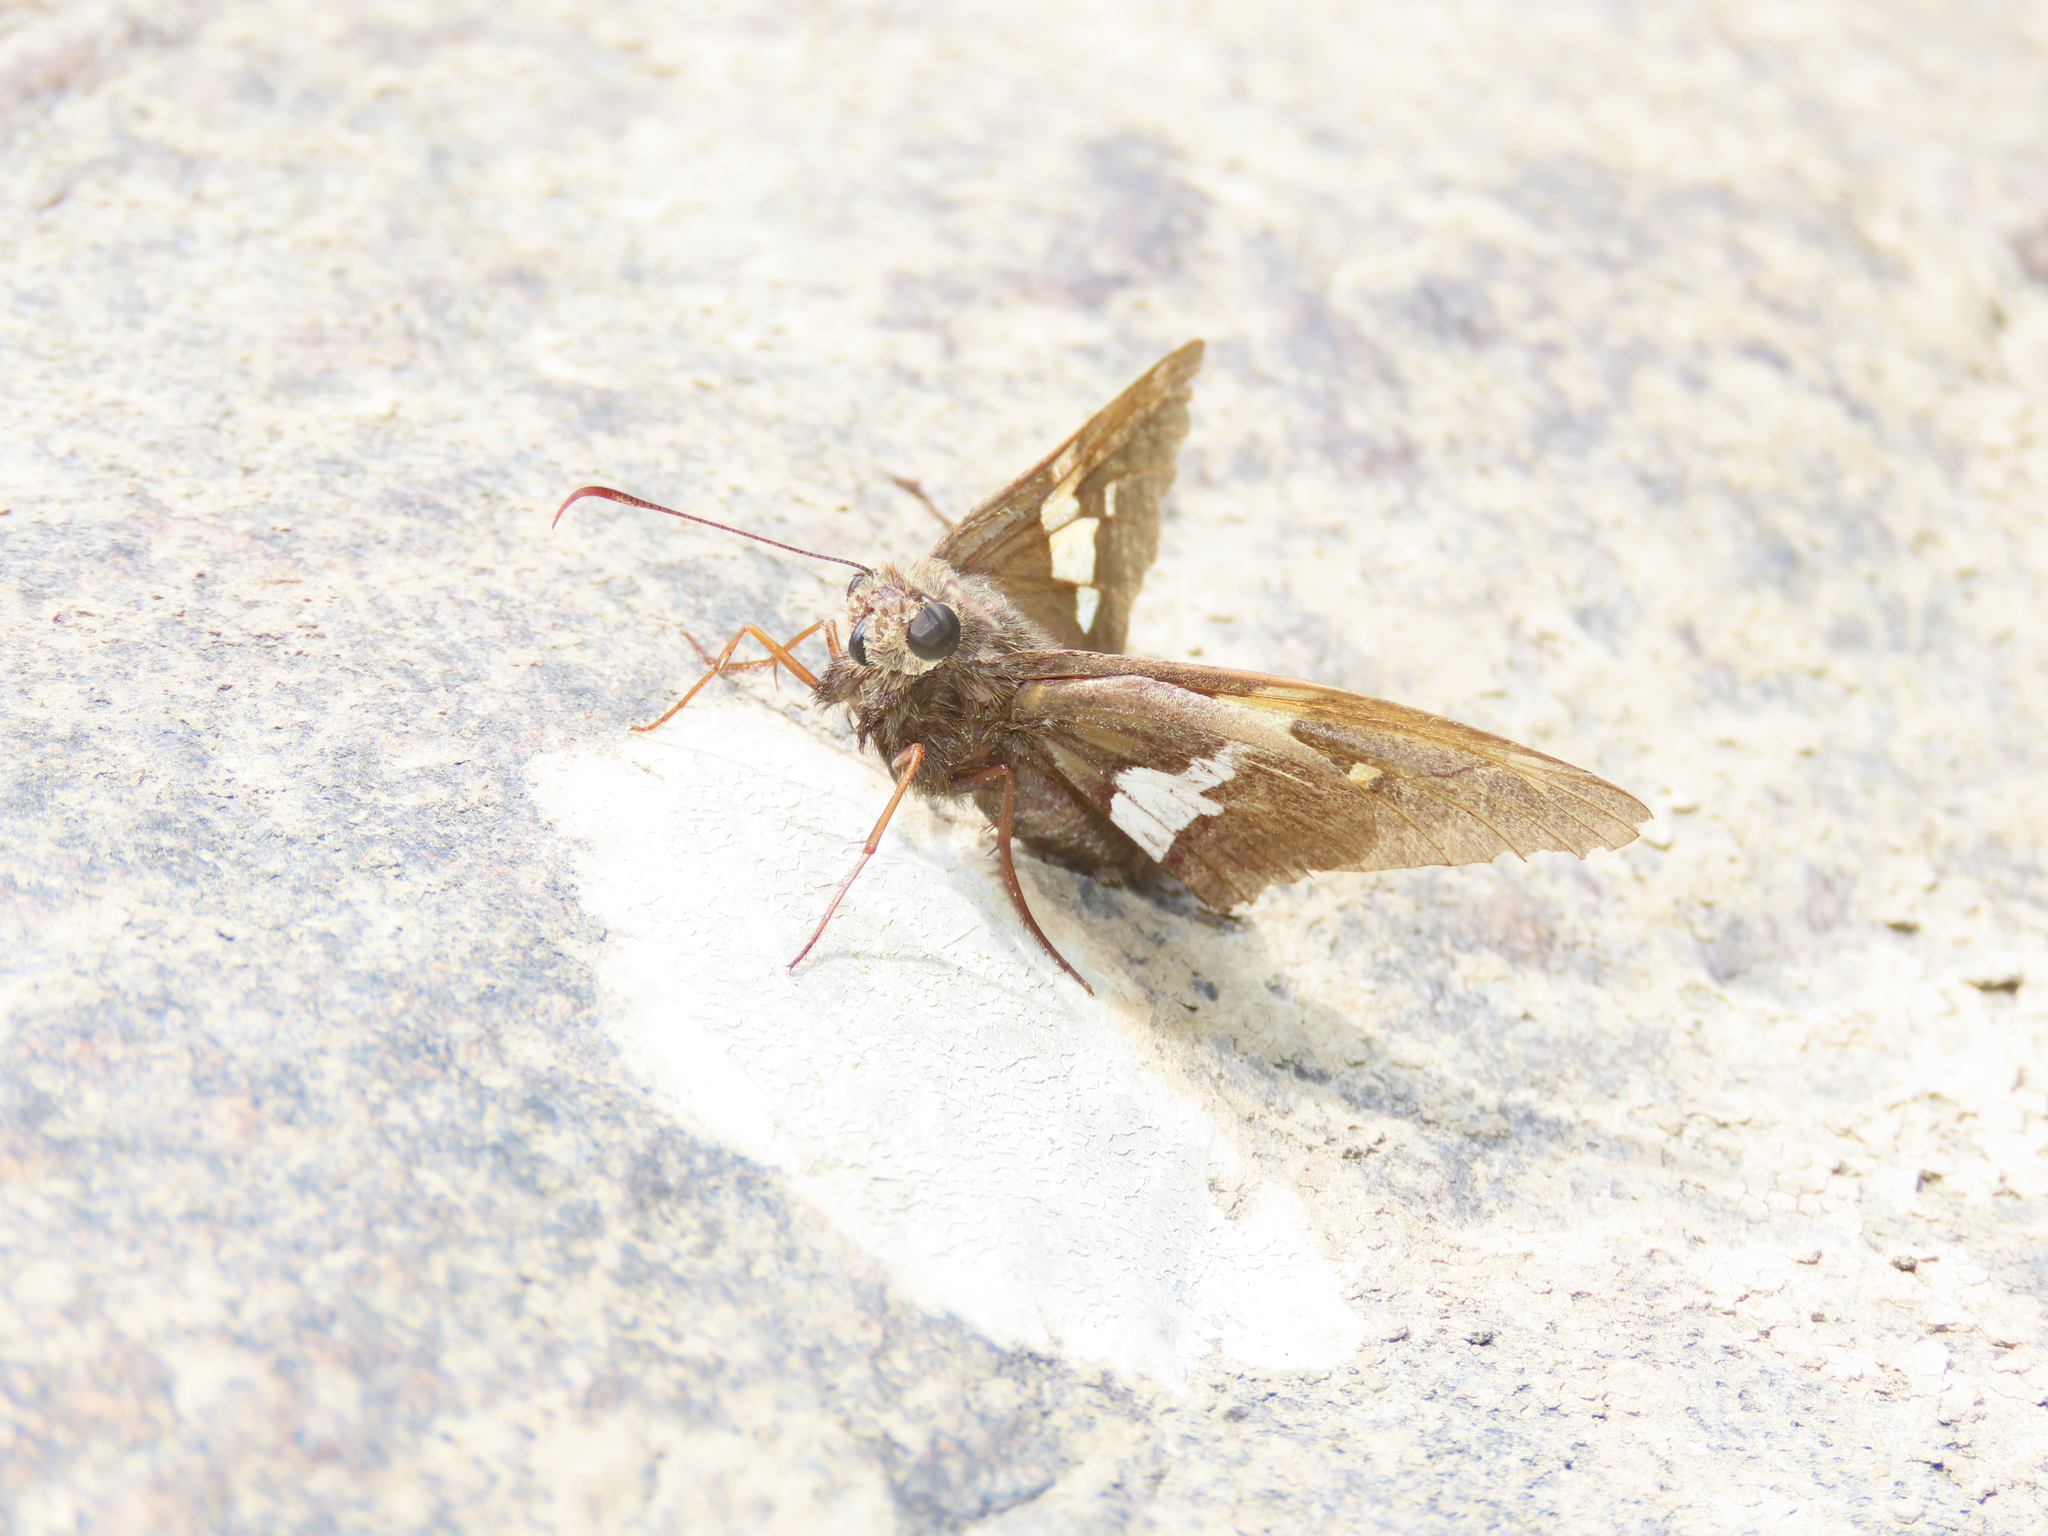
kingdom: Animalia
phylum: Arthropoda
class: Insecta
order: Lepidoptera
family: Hesperiidae
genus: Epargyreus
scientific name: Epargyreus clarus
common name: Silver-spotted skipper
